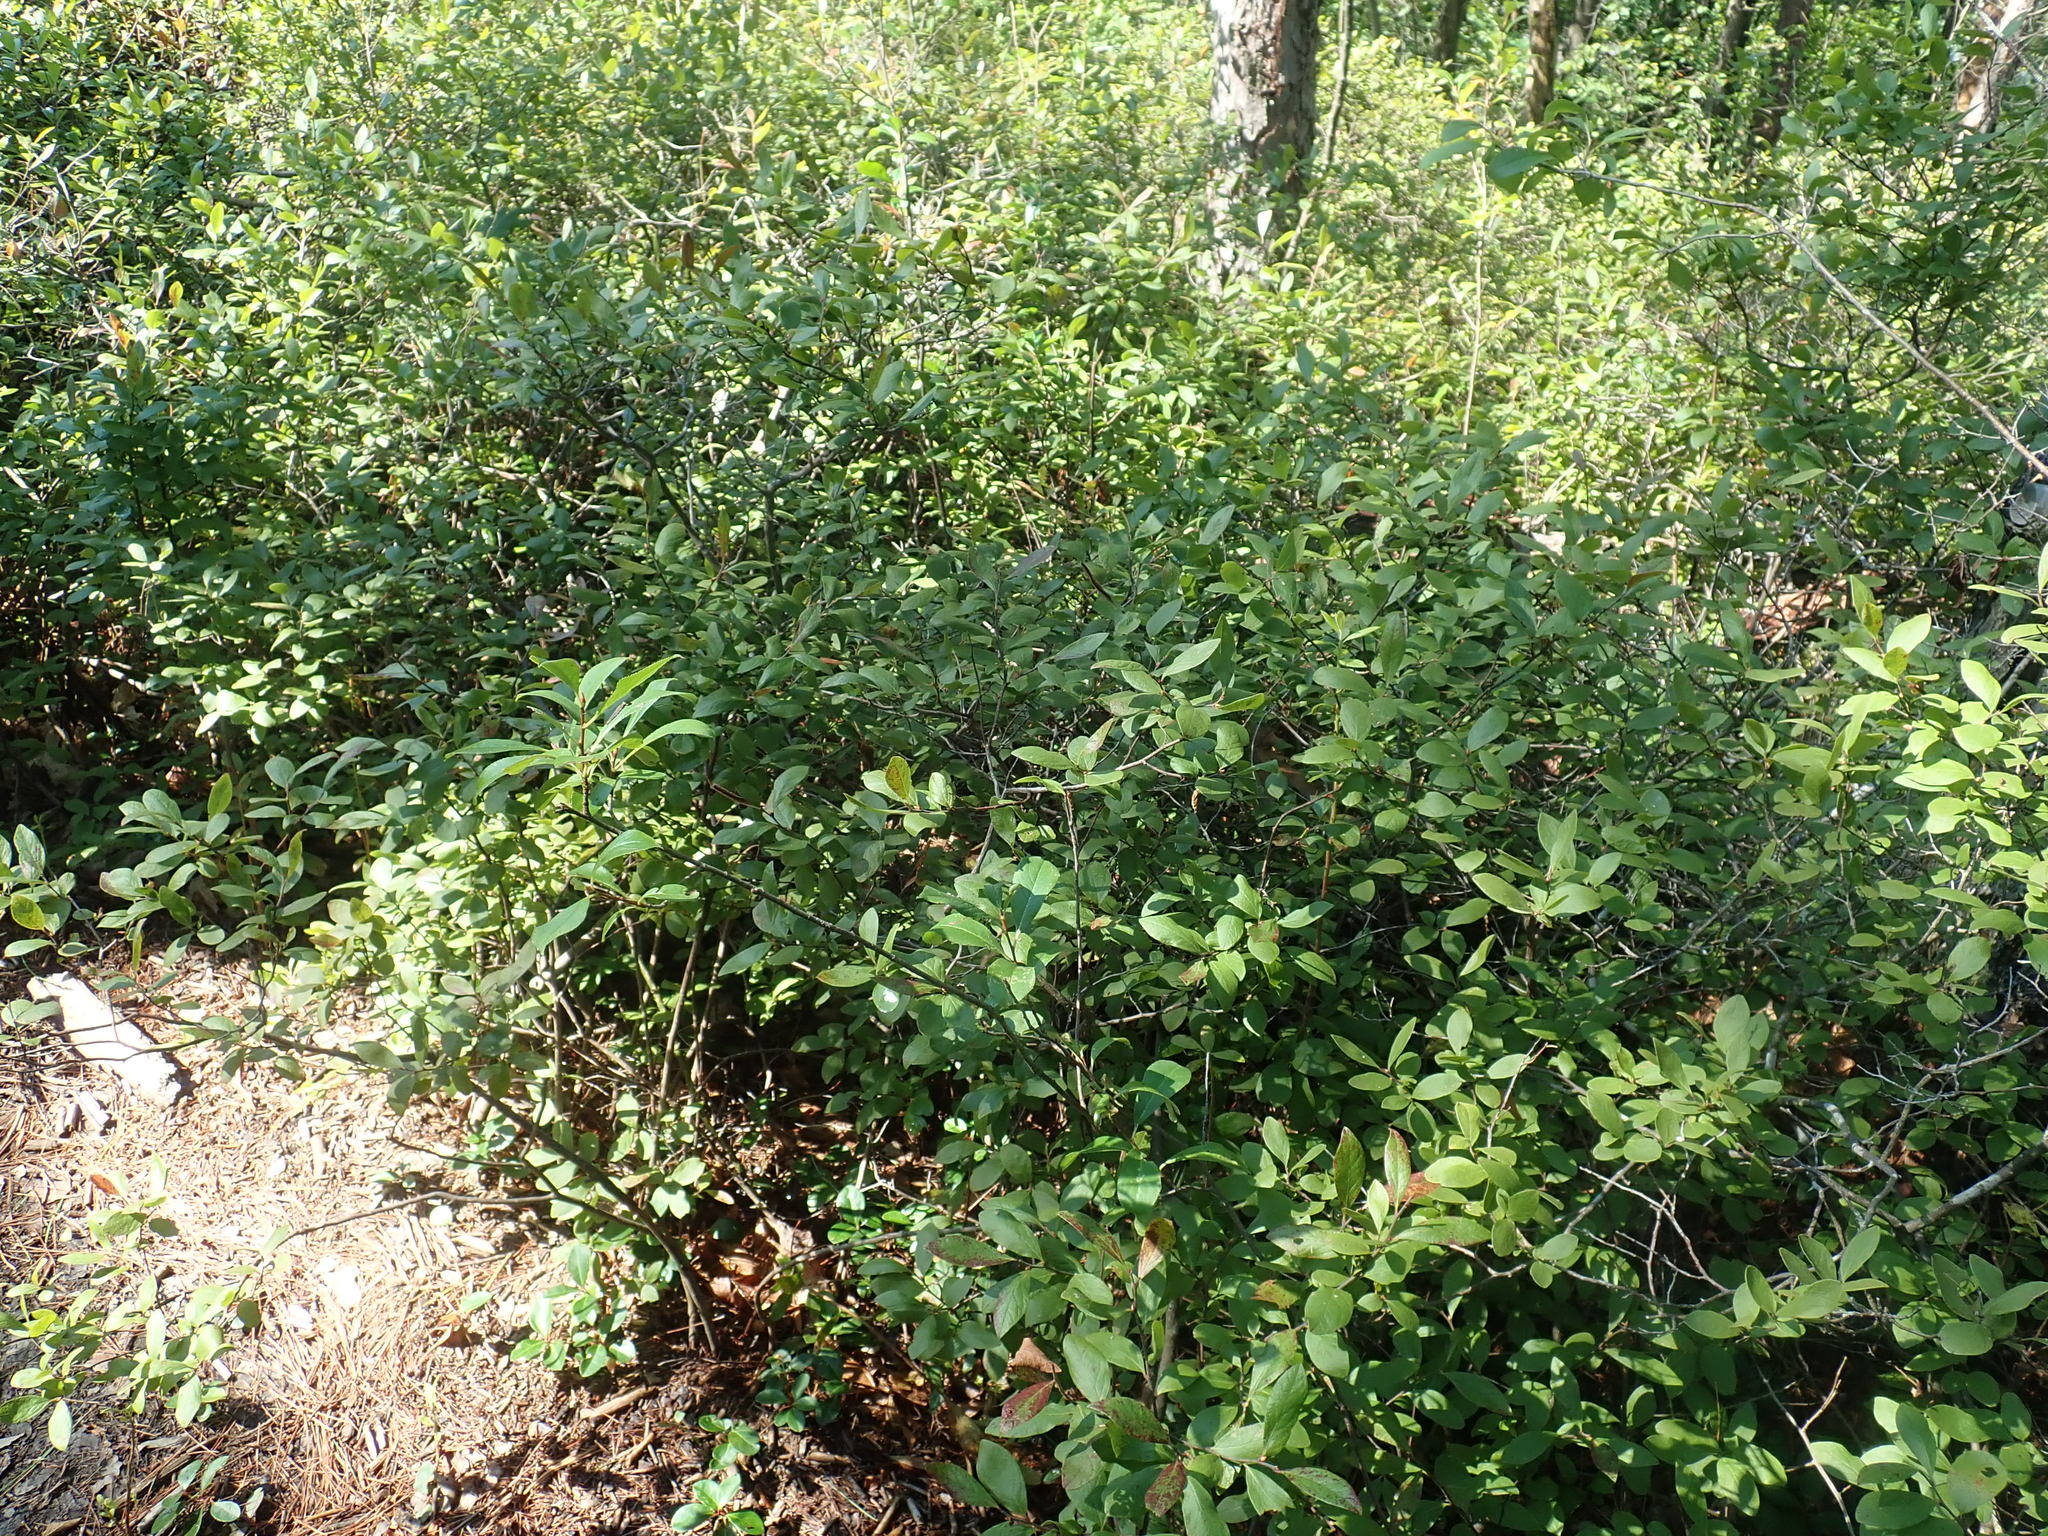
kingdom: Plantae
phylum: Tracheophyta
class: Magnoliopsida
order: Ericales
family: Ericaceae
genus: Gaylussacia
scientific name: Gaylussacia baccata
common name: Black huckleberry
